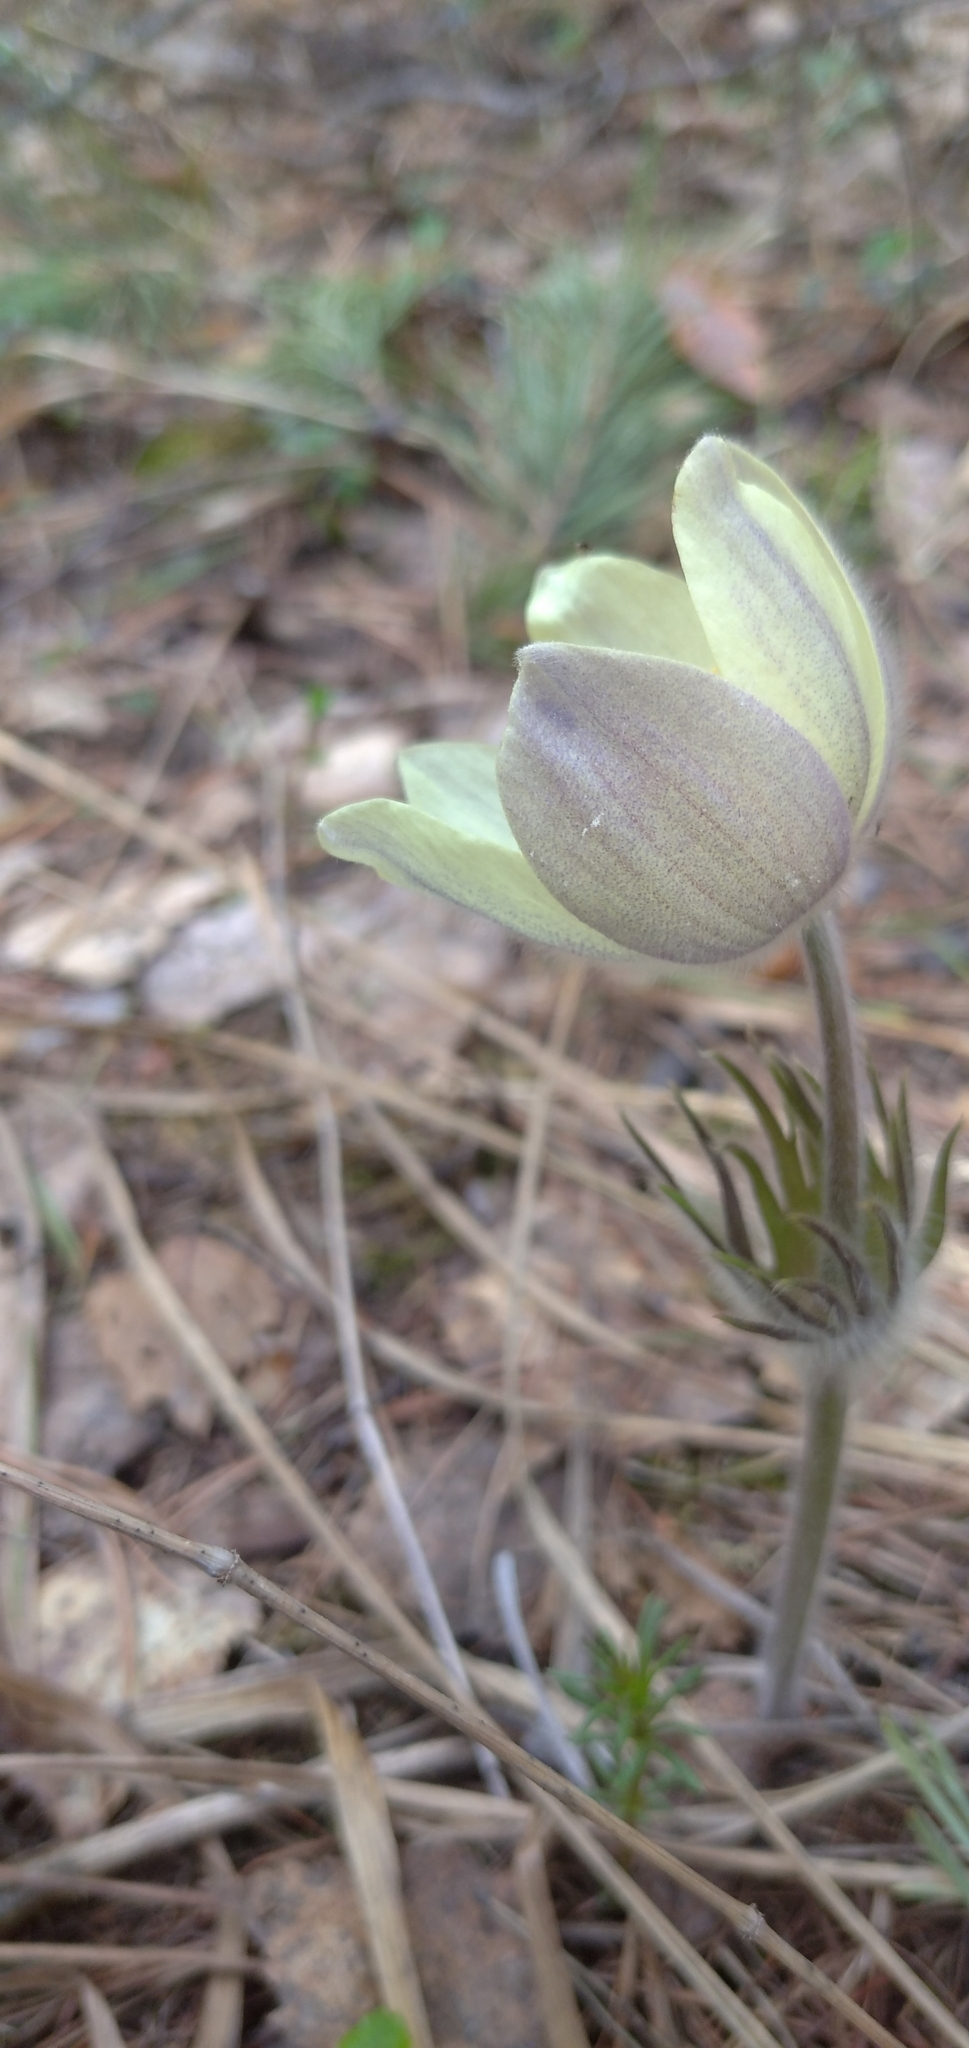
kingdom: Plantae
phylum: Tracheophyta
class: Magnoliopsida
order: Ranunculales
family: Ranunculaceae
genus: Pulsatilla
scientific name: Pulsatilla patens
